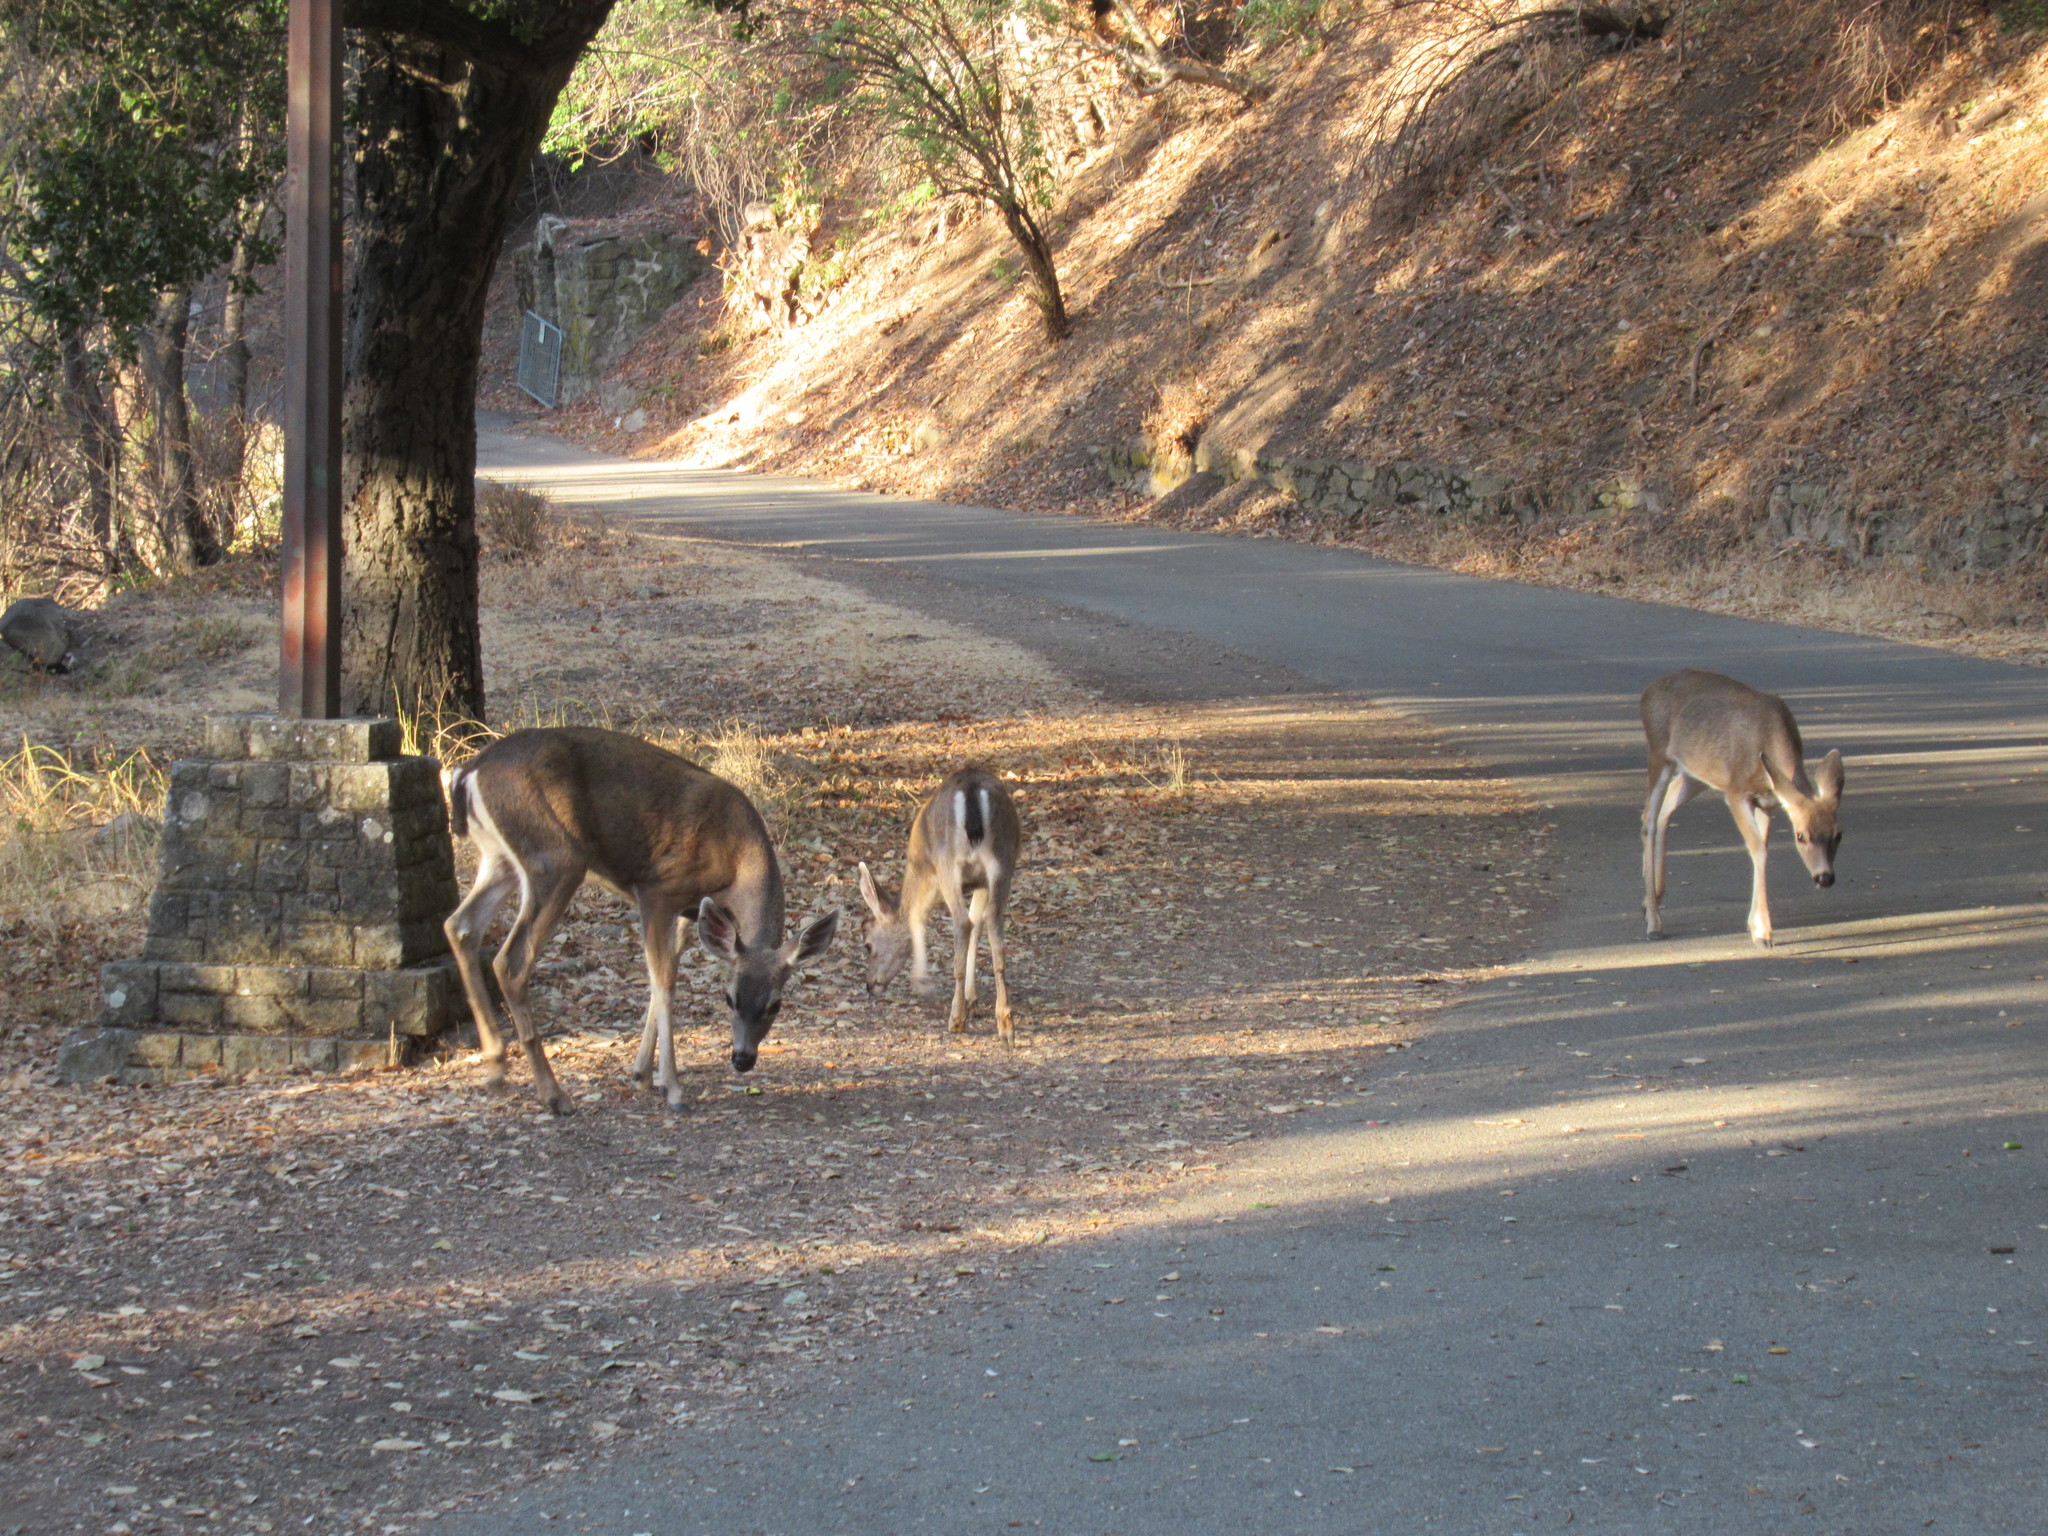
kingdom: Animalia
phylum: Chordata
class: Mammalia
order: Artiodactyla
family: Cervidae
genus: Odocoileus
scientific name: Odocoileus hemionus
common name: Mule deer
